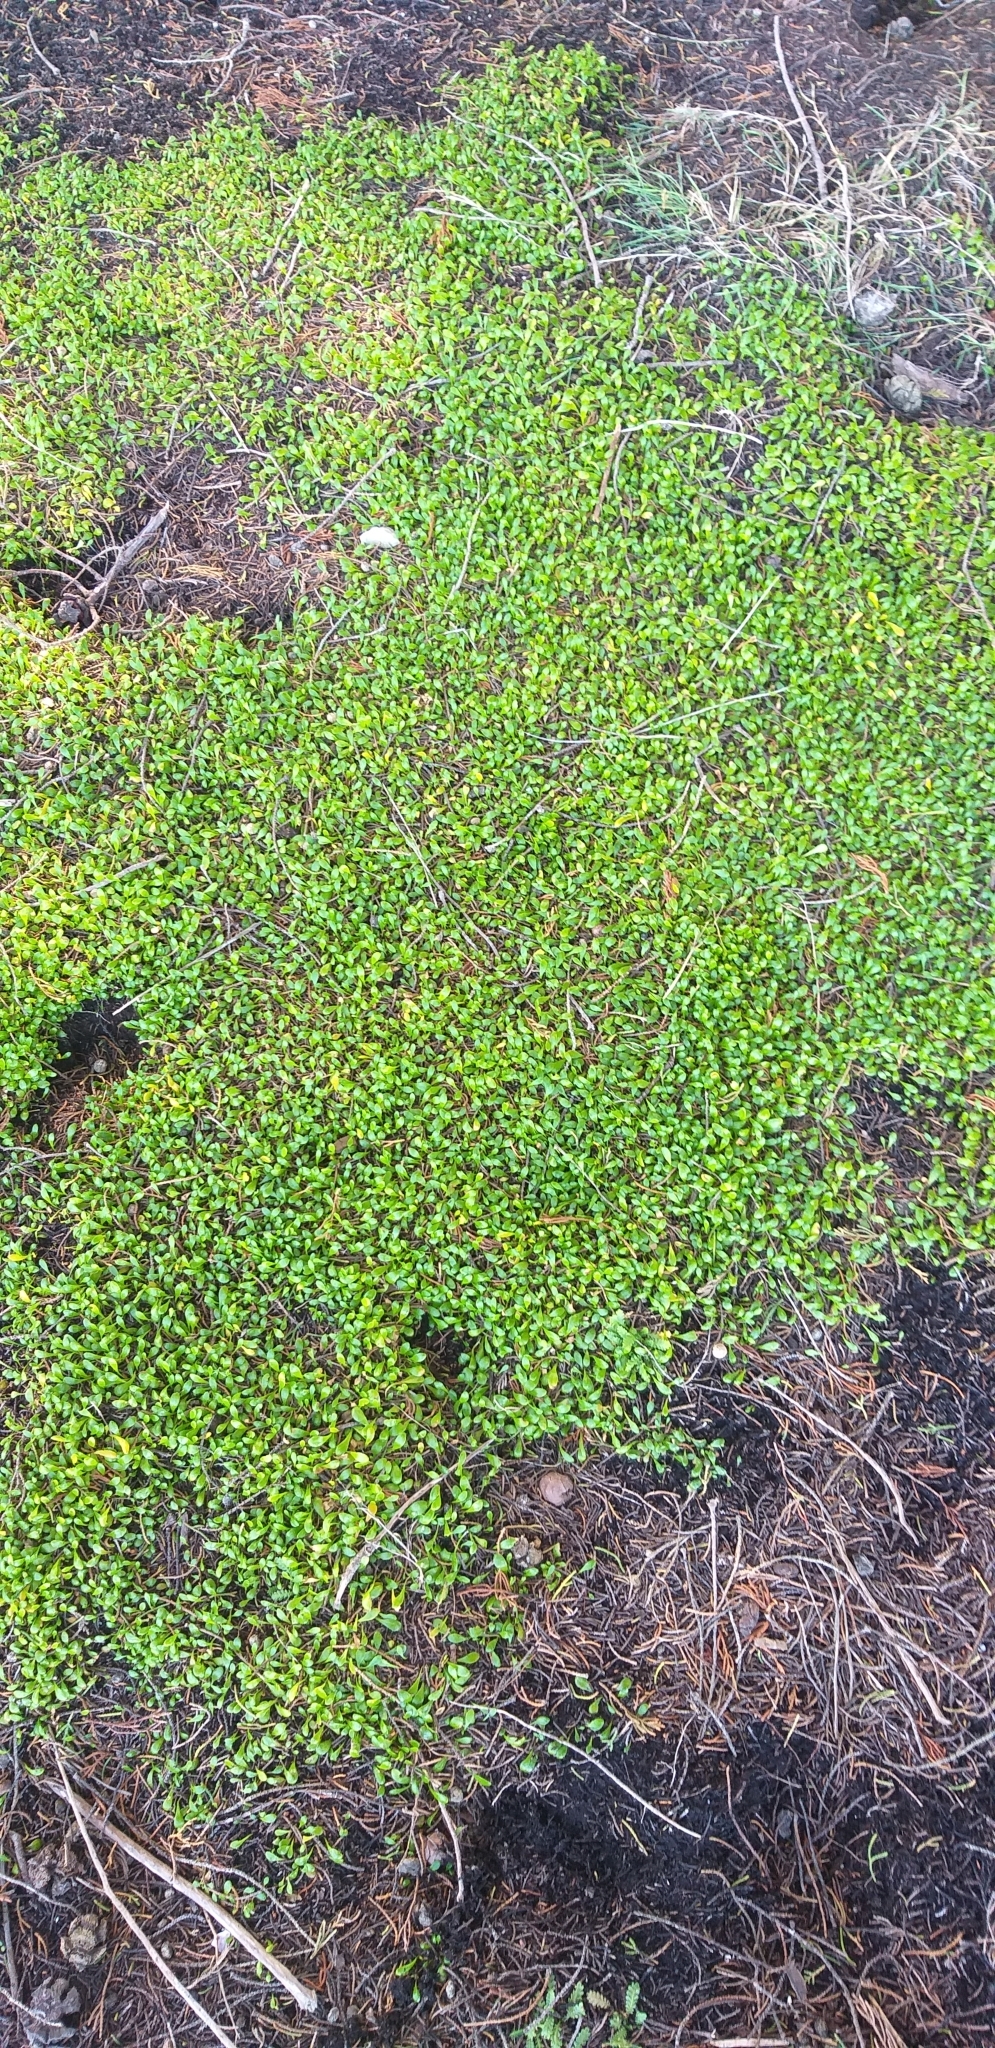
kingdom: Plantae
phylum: Tracheophyta
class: Magnoliopsida
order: Asterales
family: Goodeniaceae
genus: Goodenia
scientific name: Goodenia radicans
